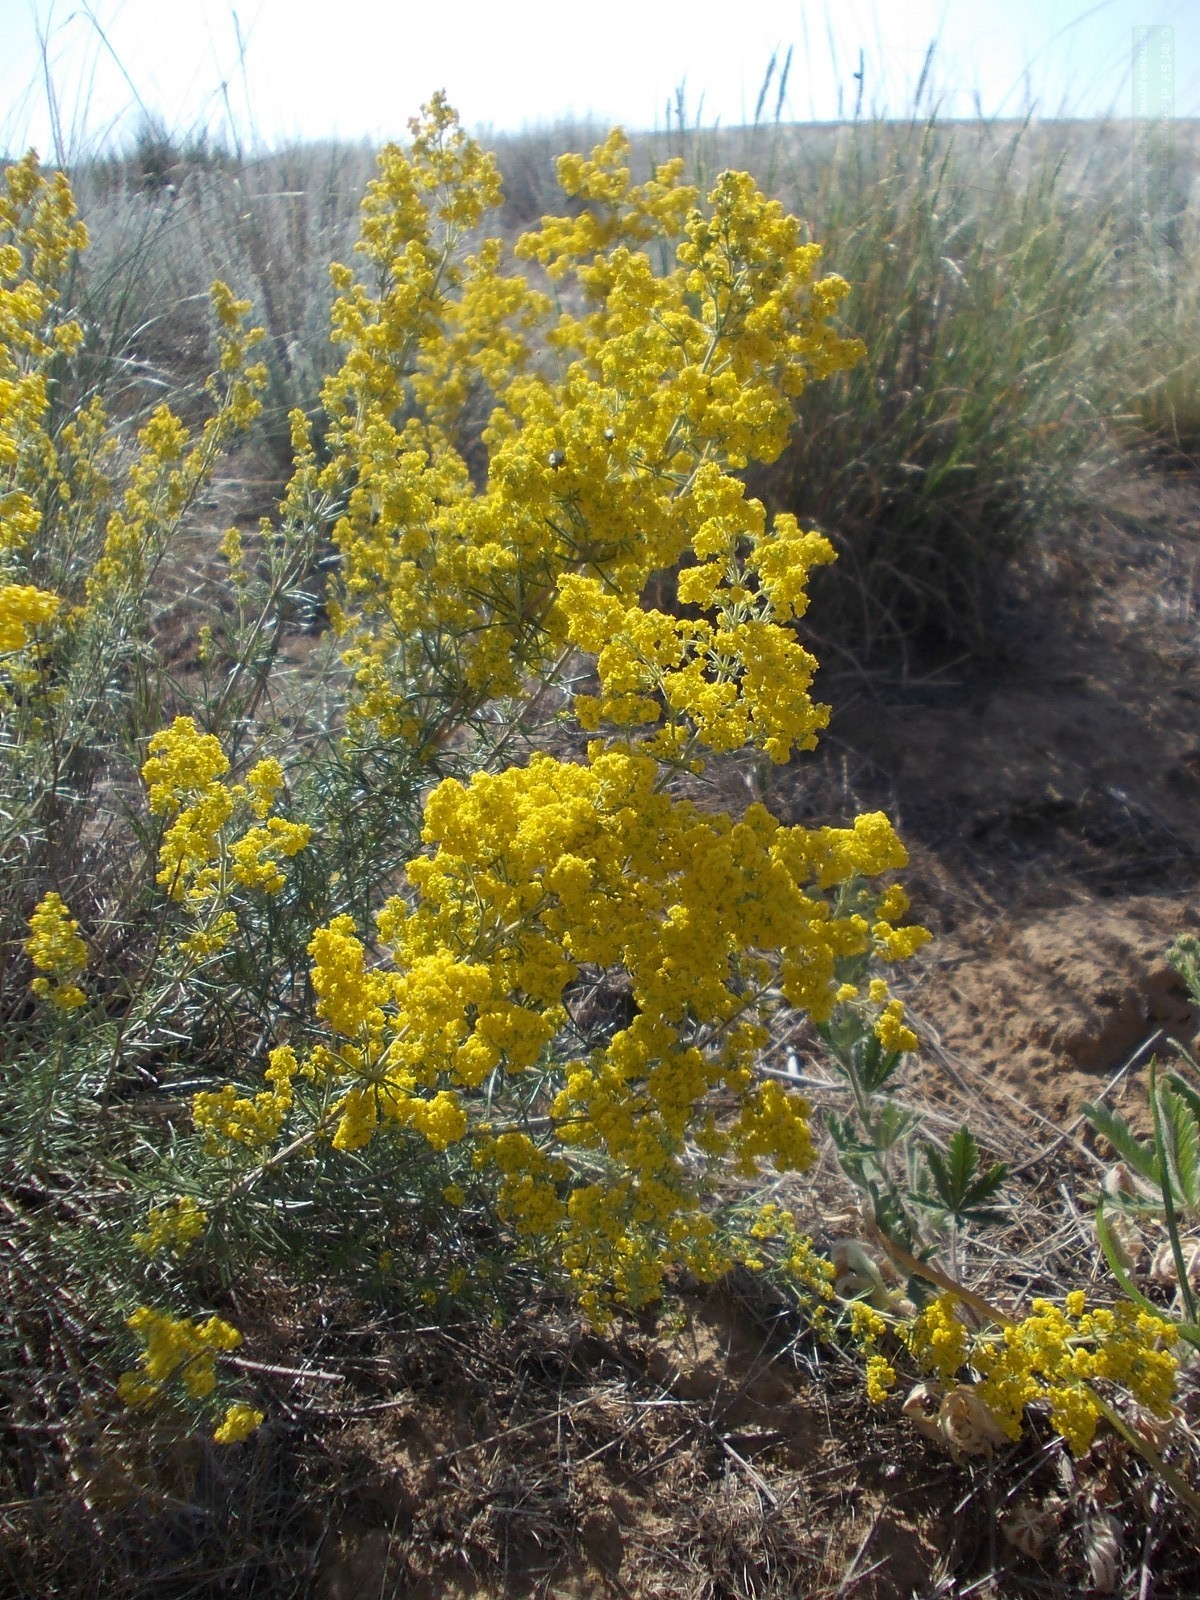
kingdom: Plantae
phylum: Tracheophyta
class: Magnoliopsida
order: Gentianales
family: Rubiaceae
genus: Galium
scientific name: Galium verum
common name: Lady's bedstraw
